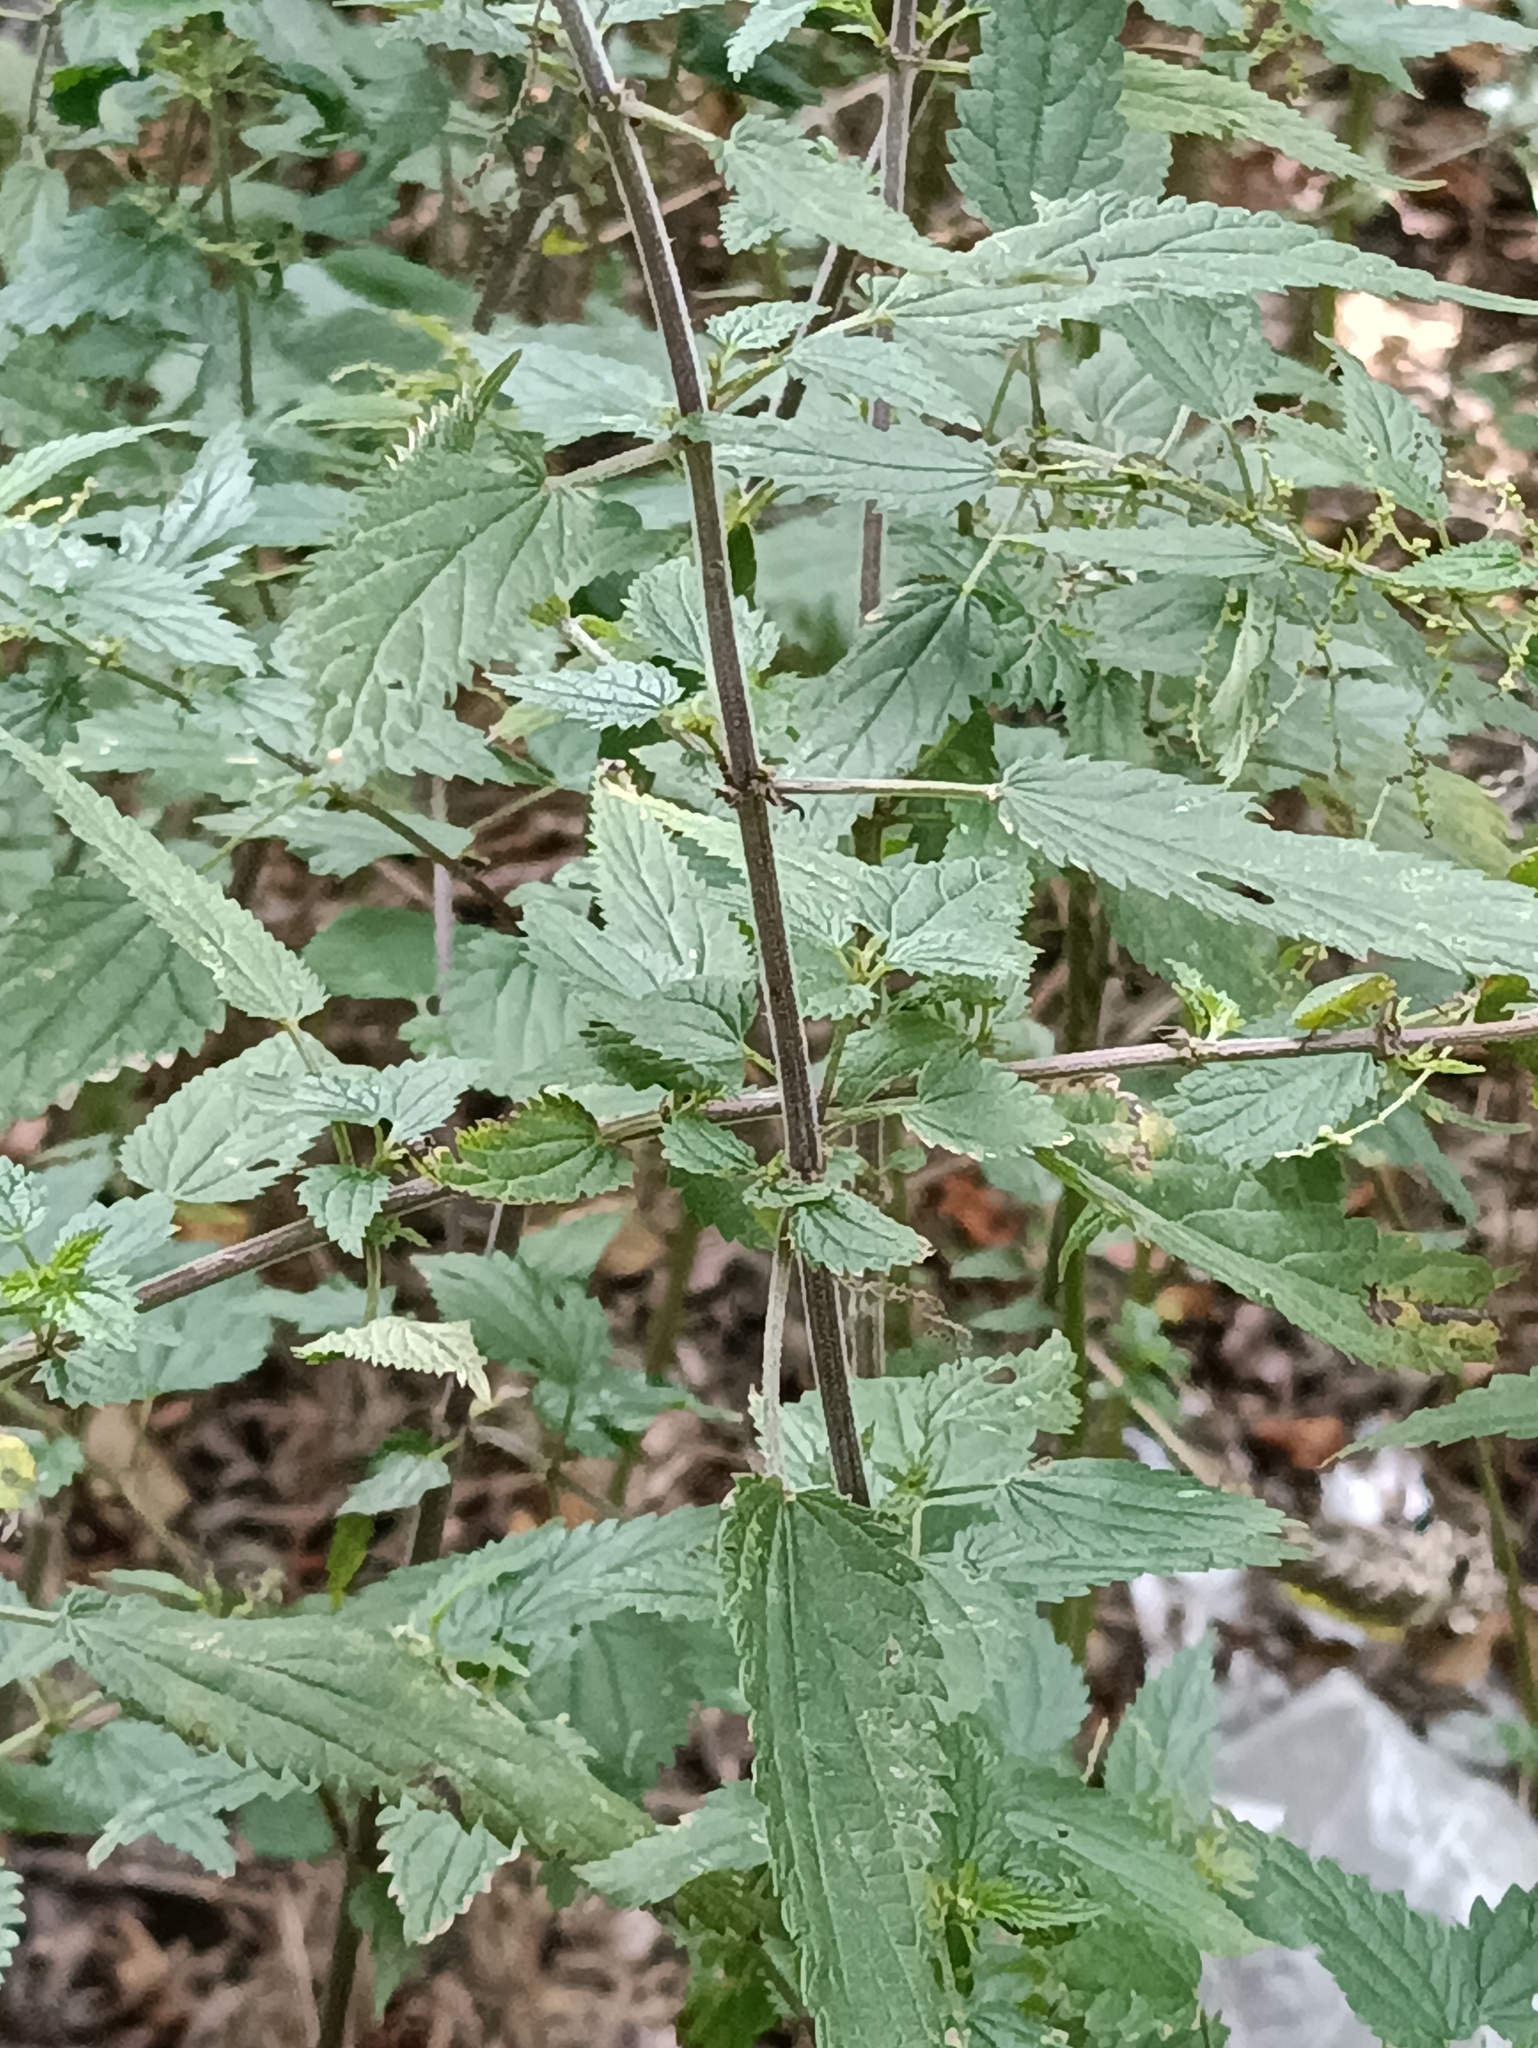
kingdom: Plantae
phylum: Tracheophyta
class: Magnoliopsida
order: Rosales
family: Urticaceae
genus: Urtica
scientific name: Urtica dioica
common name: Common nettle
